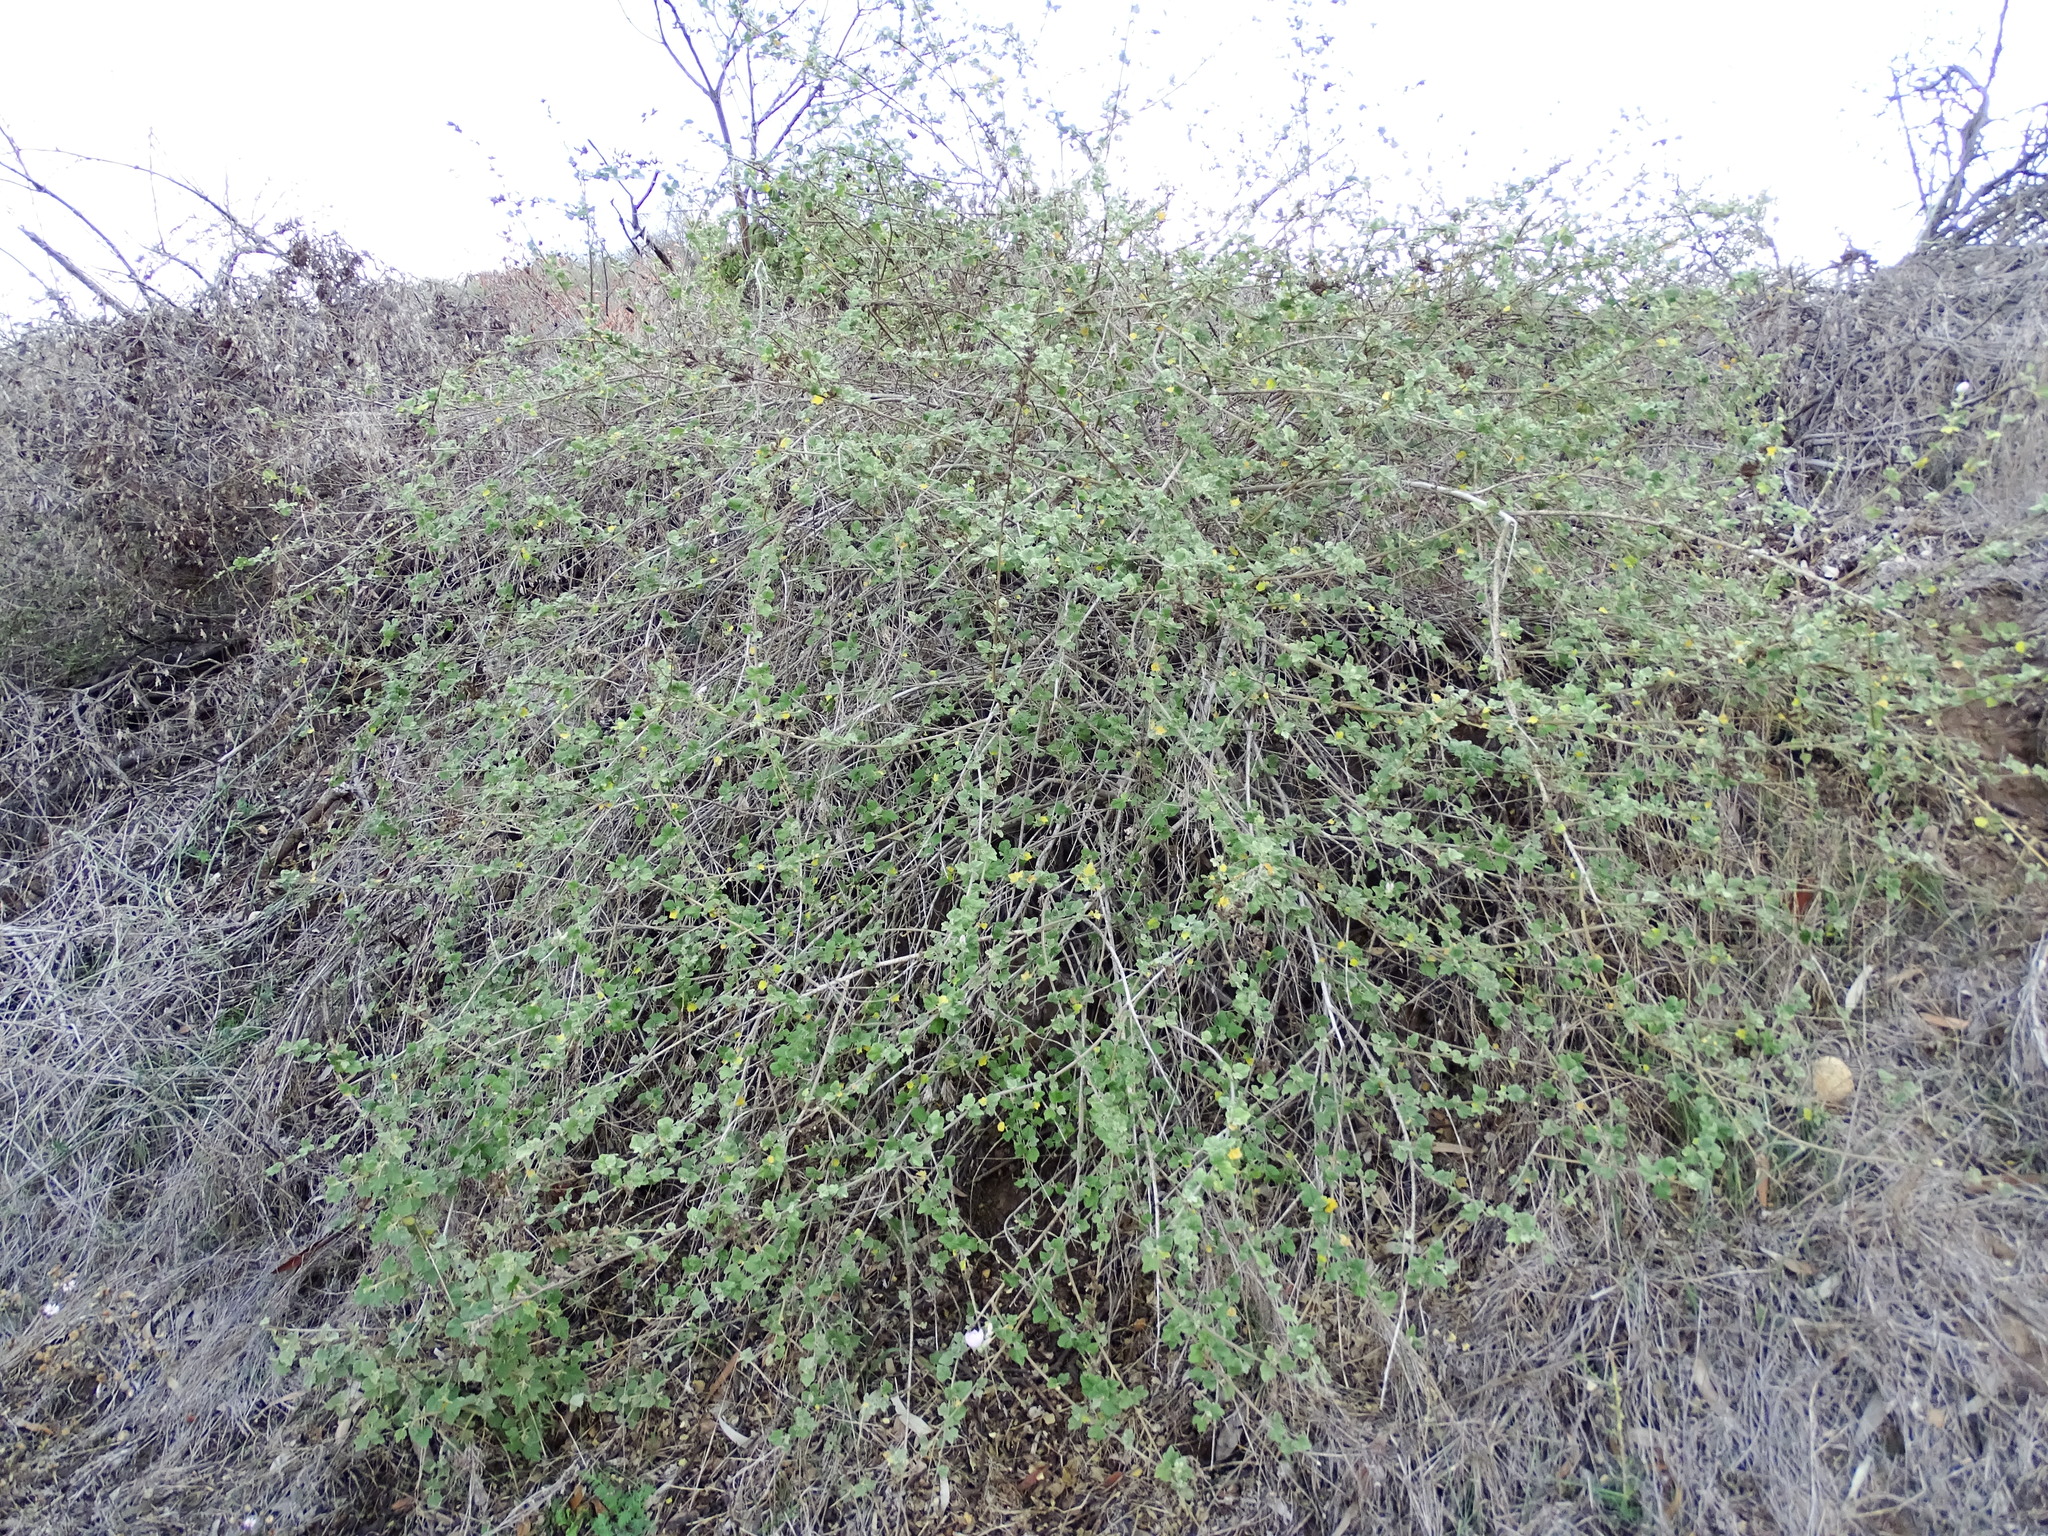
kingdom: Plantae
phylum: Tracheophyta
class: Magnoliopsida
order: Malvales
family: Malvaceae
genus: Malacothamnus
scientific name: Malacothamnus fasciculatus
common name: Sant cruz island bush-mallow
